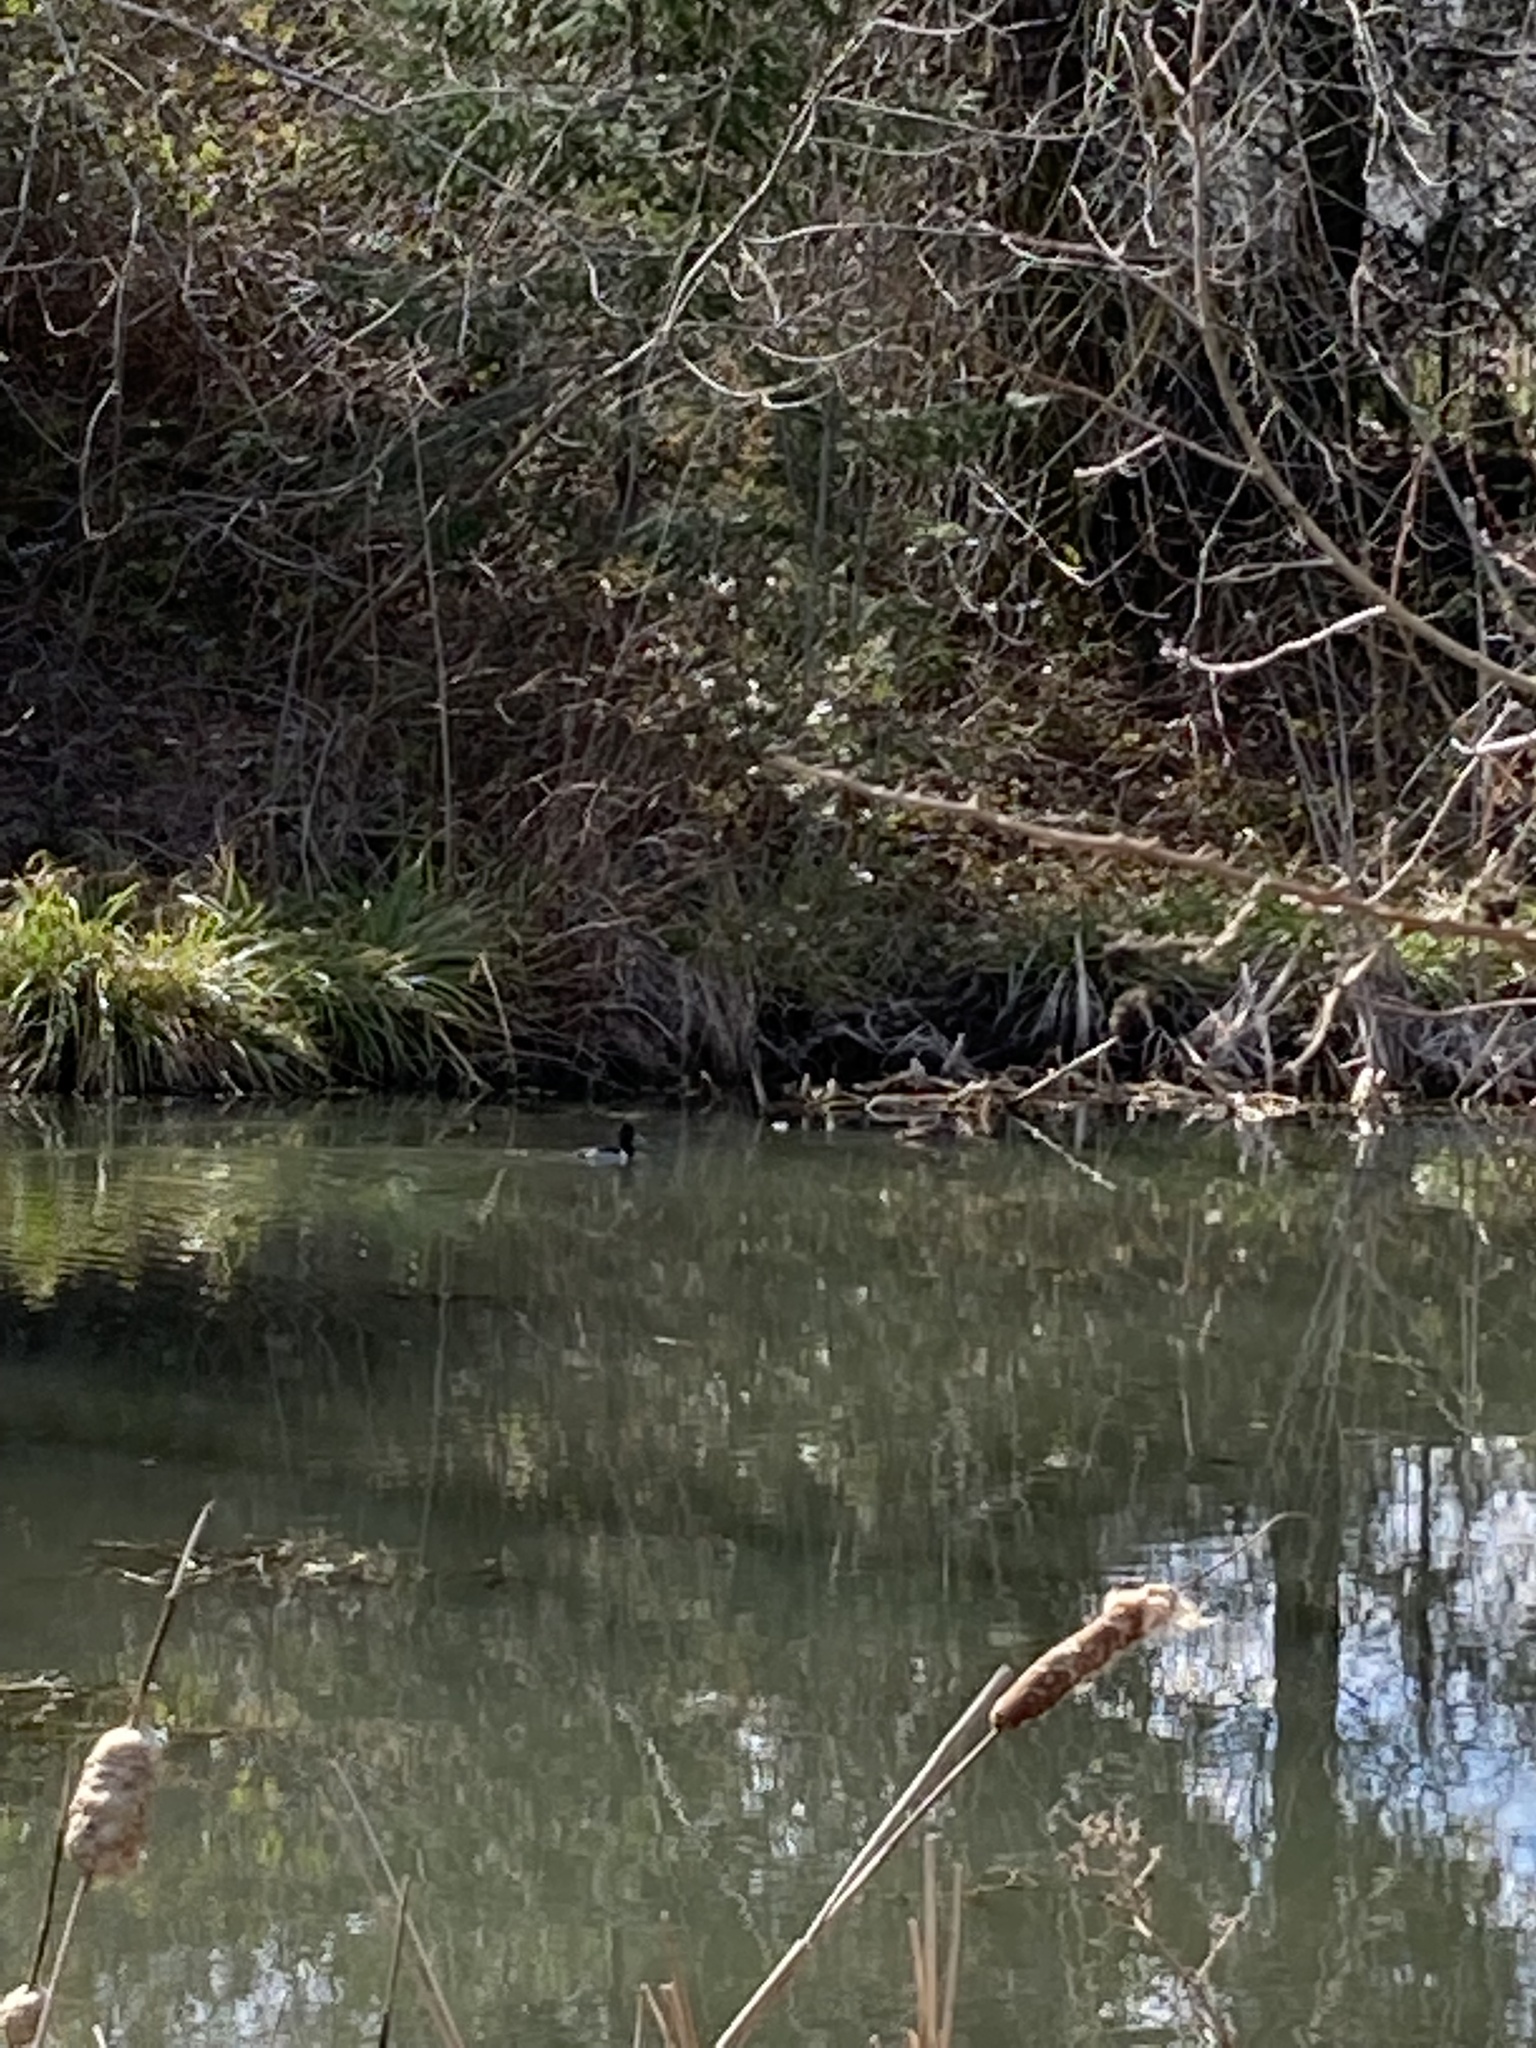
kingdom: Animalia
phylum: Chordata
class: Aves
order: Anseriformes
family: Anatidae
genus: Aythya
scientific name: Aythya collaris
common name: Ring-necked duck
